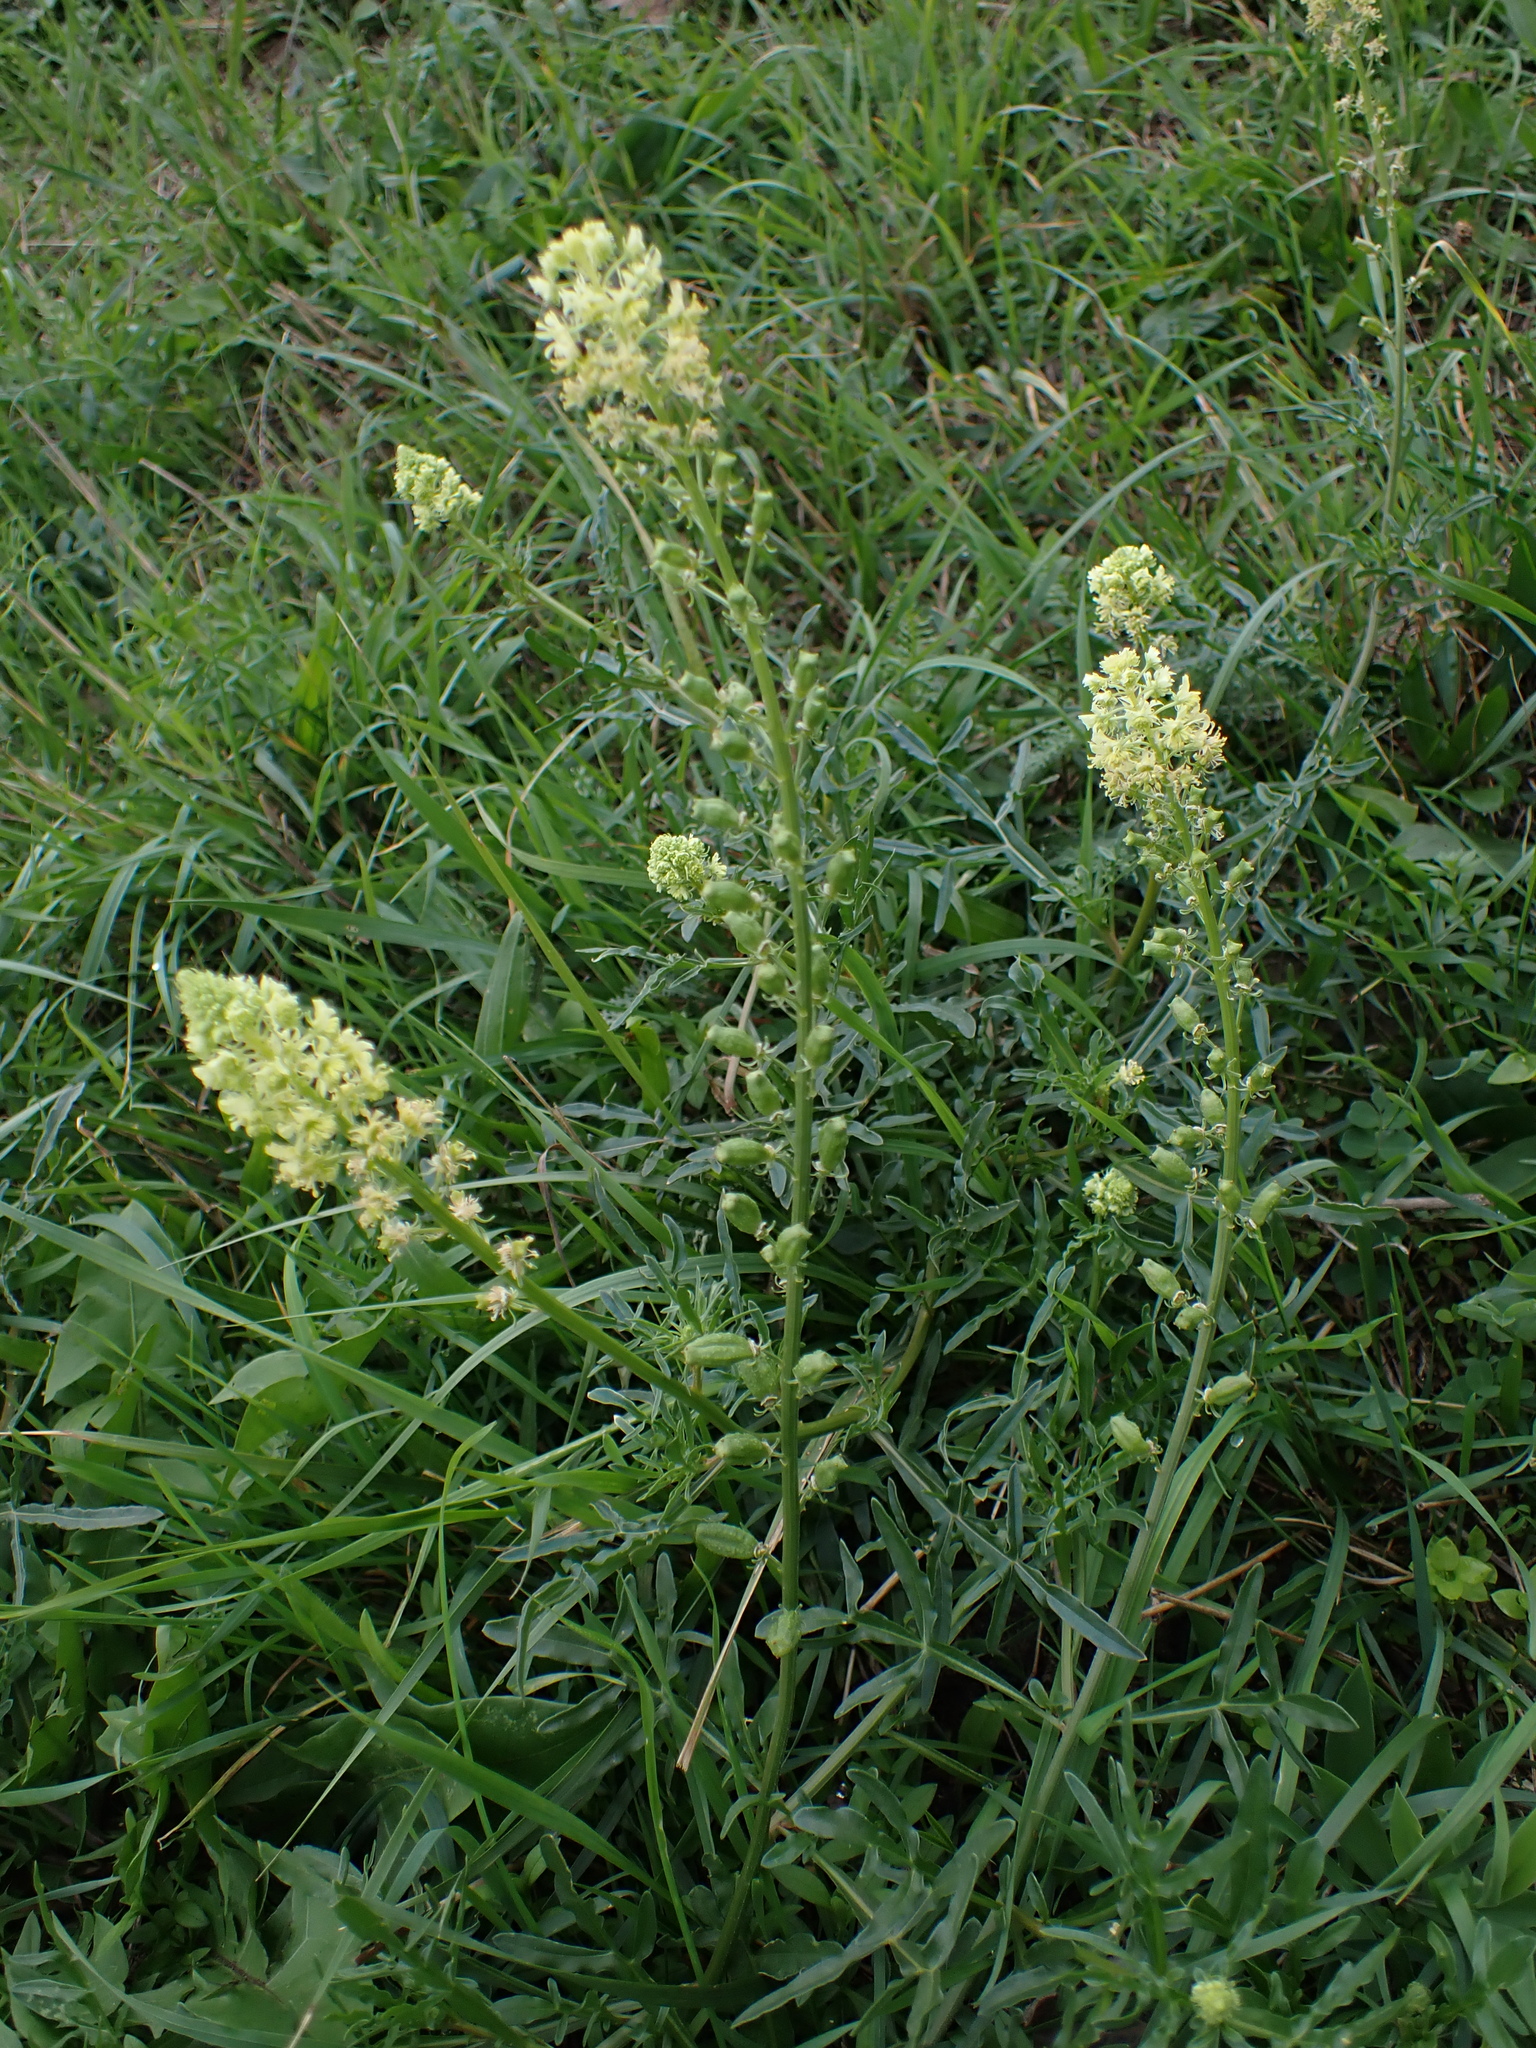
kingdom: Plantae
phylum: Tracheophyta
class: Magnoliopsida
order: Brassicales
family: Resedaceae
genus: Reseda
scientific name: Reseda lutea
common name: Wild mignonette
